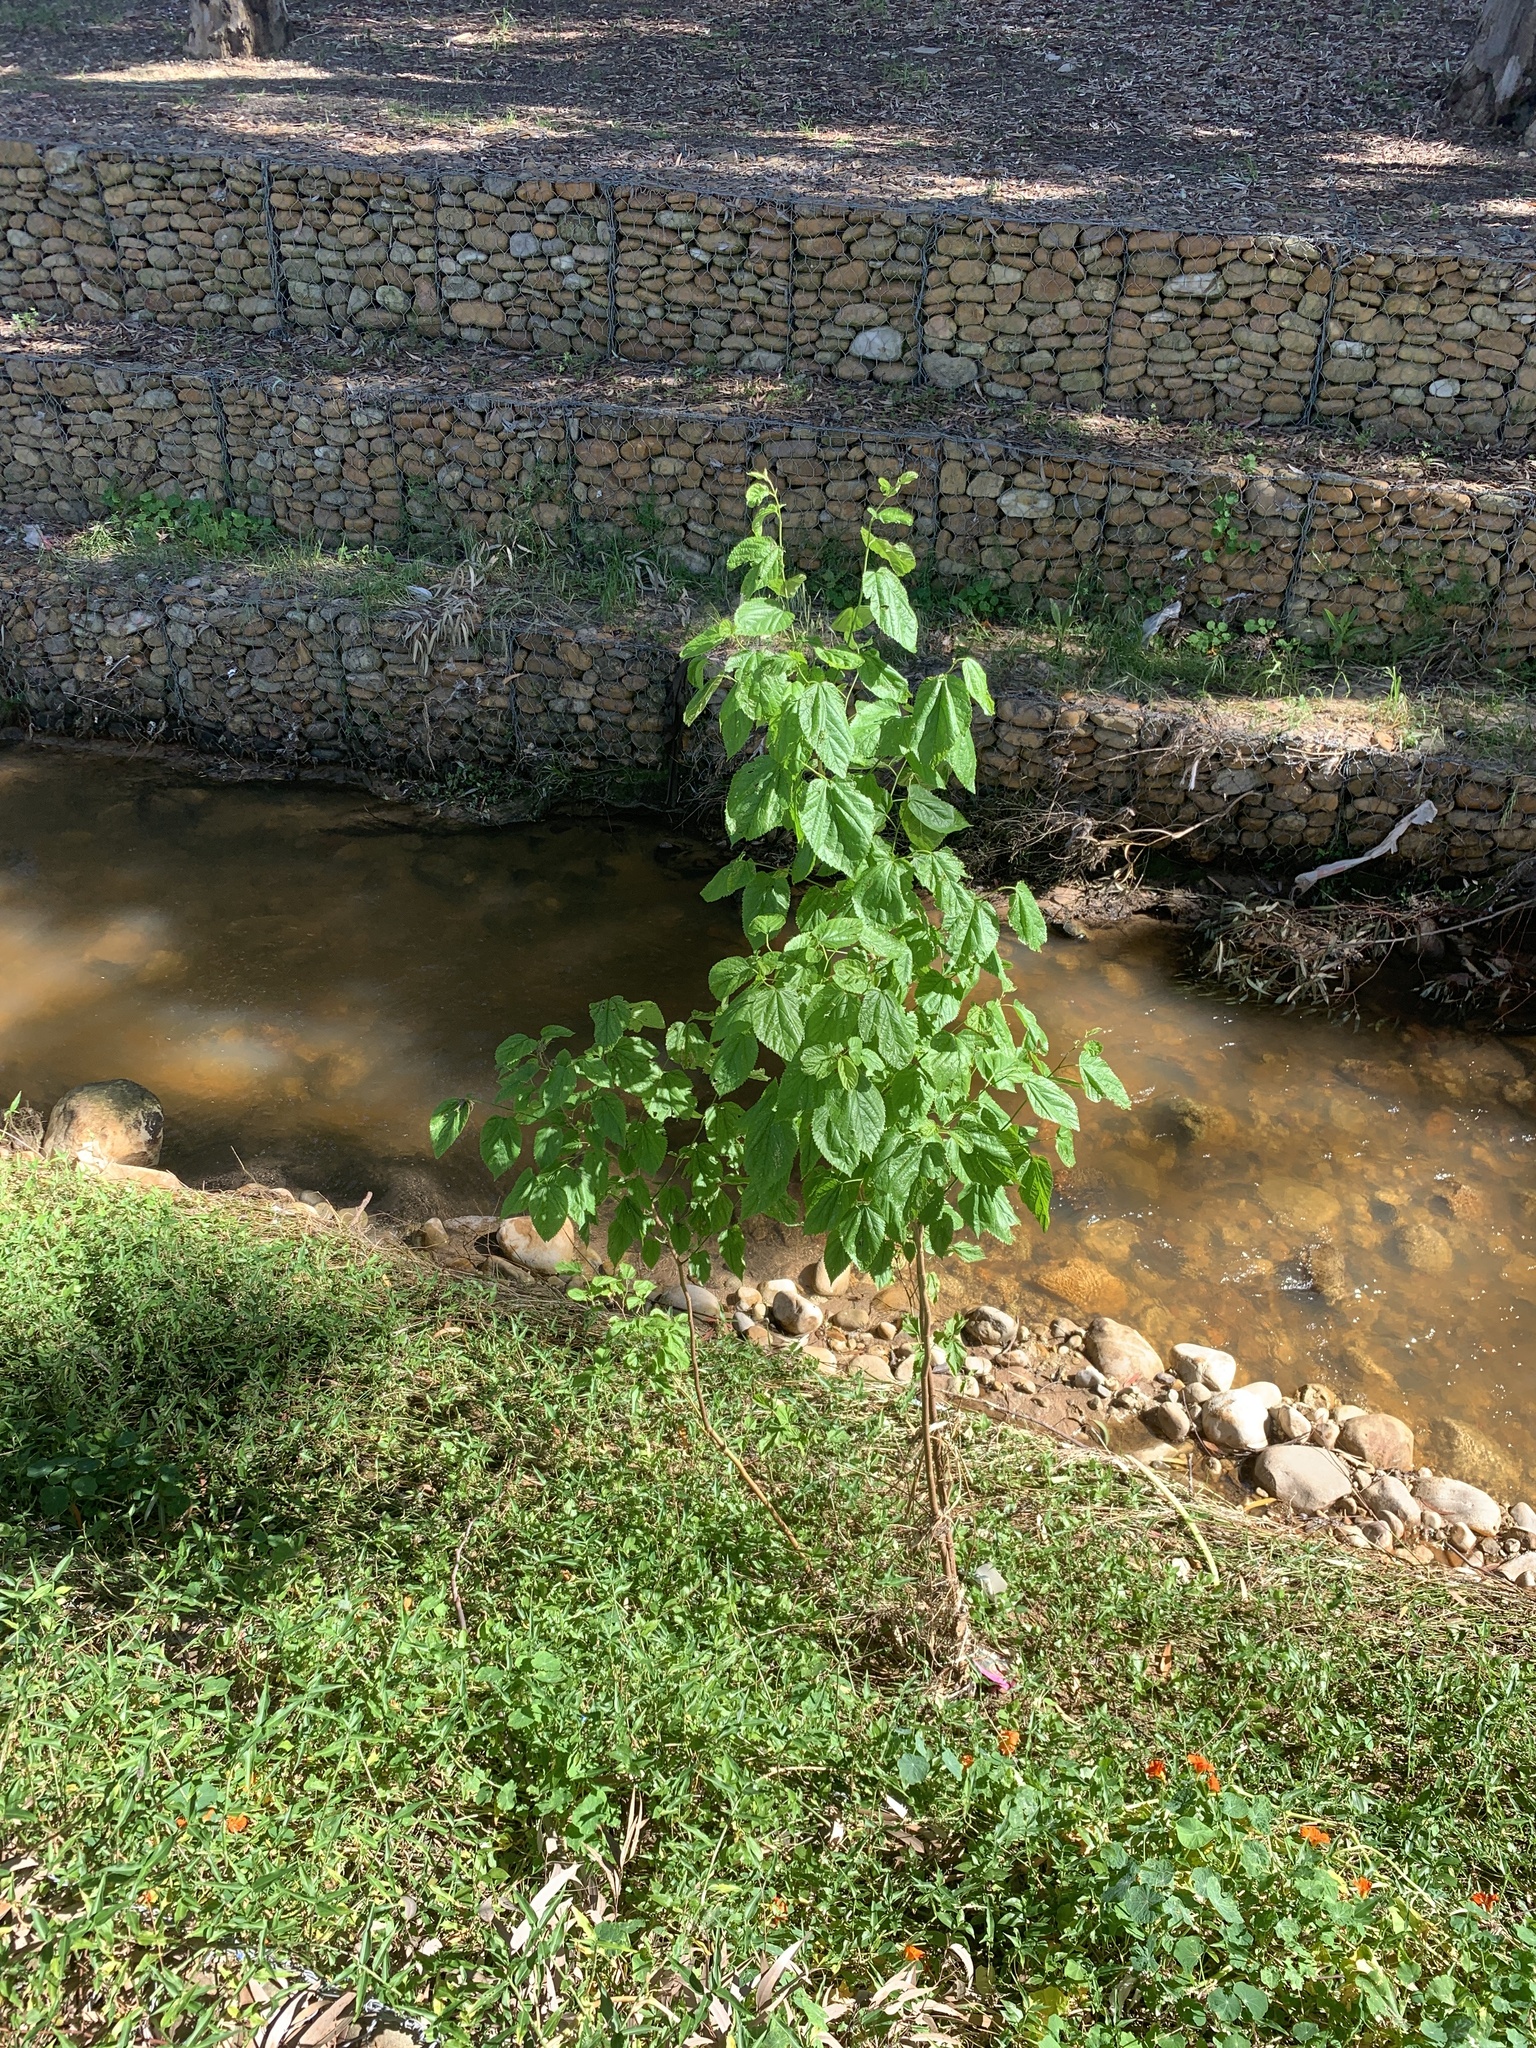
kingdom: Plantae
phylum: Tracheophyta
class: Magnoliopsida
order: Rosales
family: Moraceae
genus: Morus
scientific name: Morus alba
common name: White mulberry
